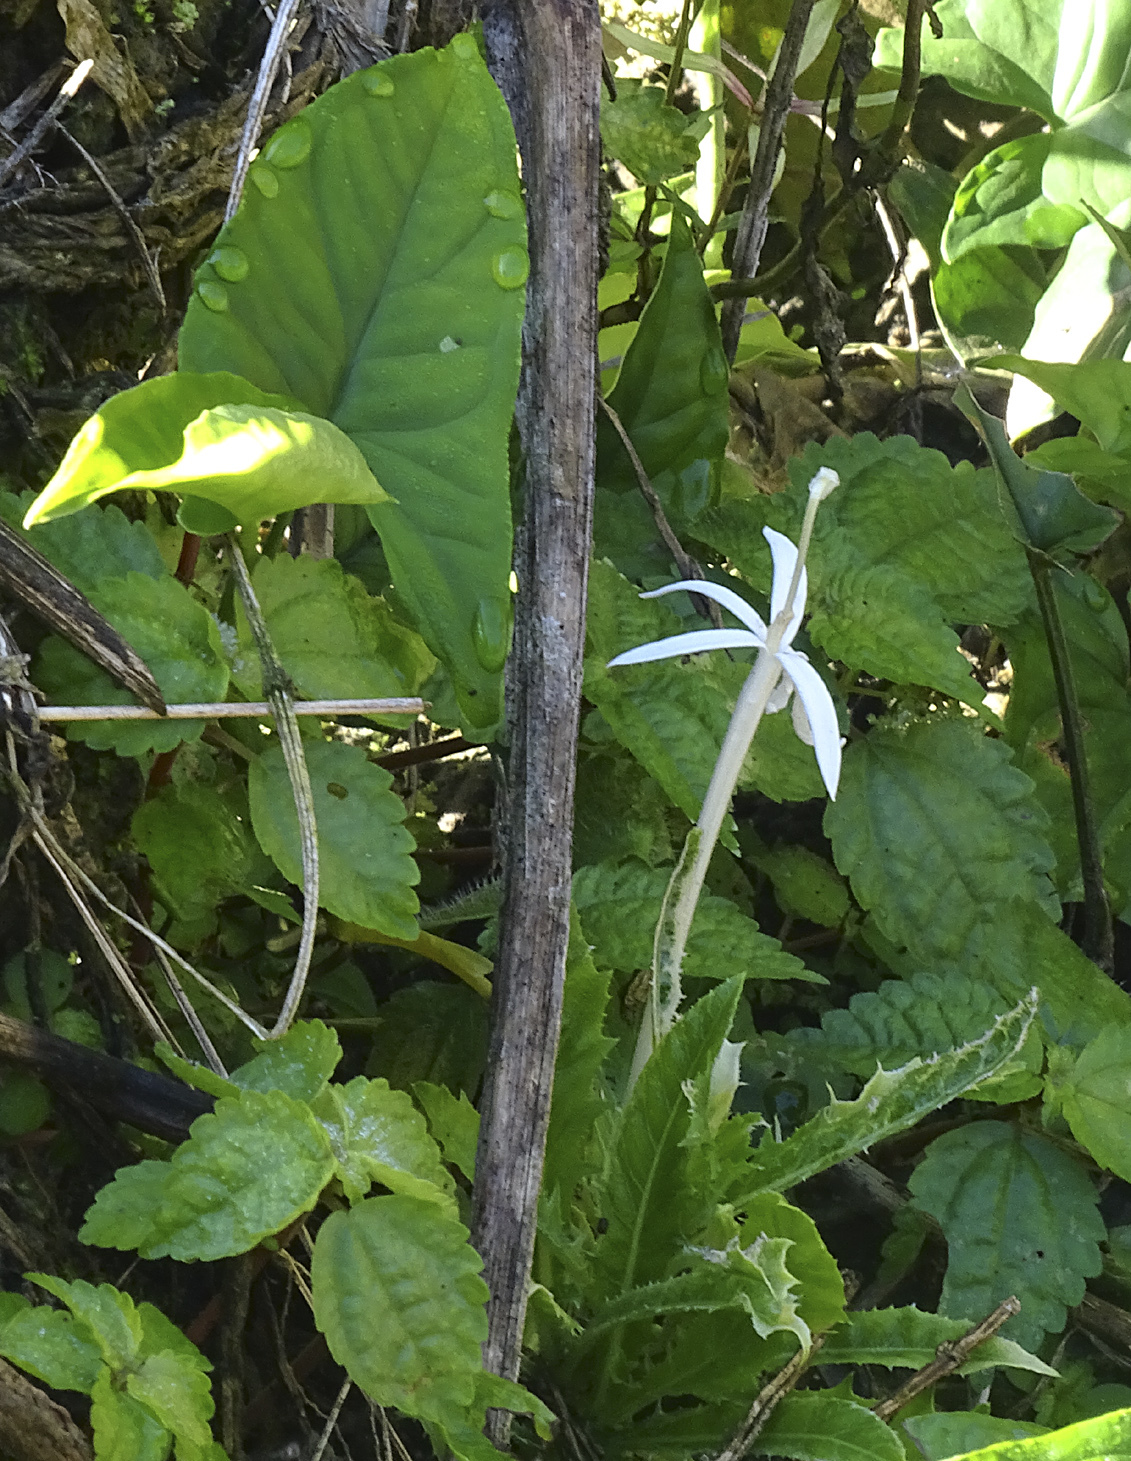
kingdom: Plantae
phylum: Tracheophyta
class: Magnoliopsida
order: Asterales
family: Campanulaceae
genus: Hippobroma
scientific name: Hippobroma longiflora
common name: Madamfate
